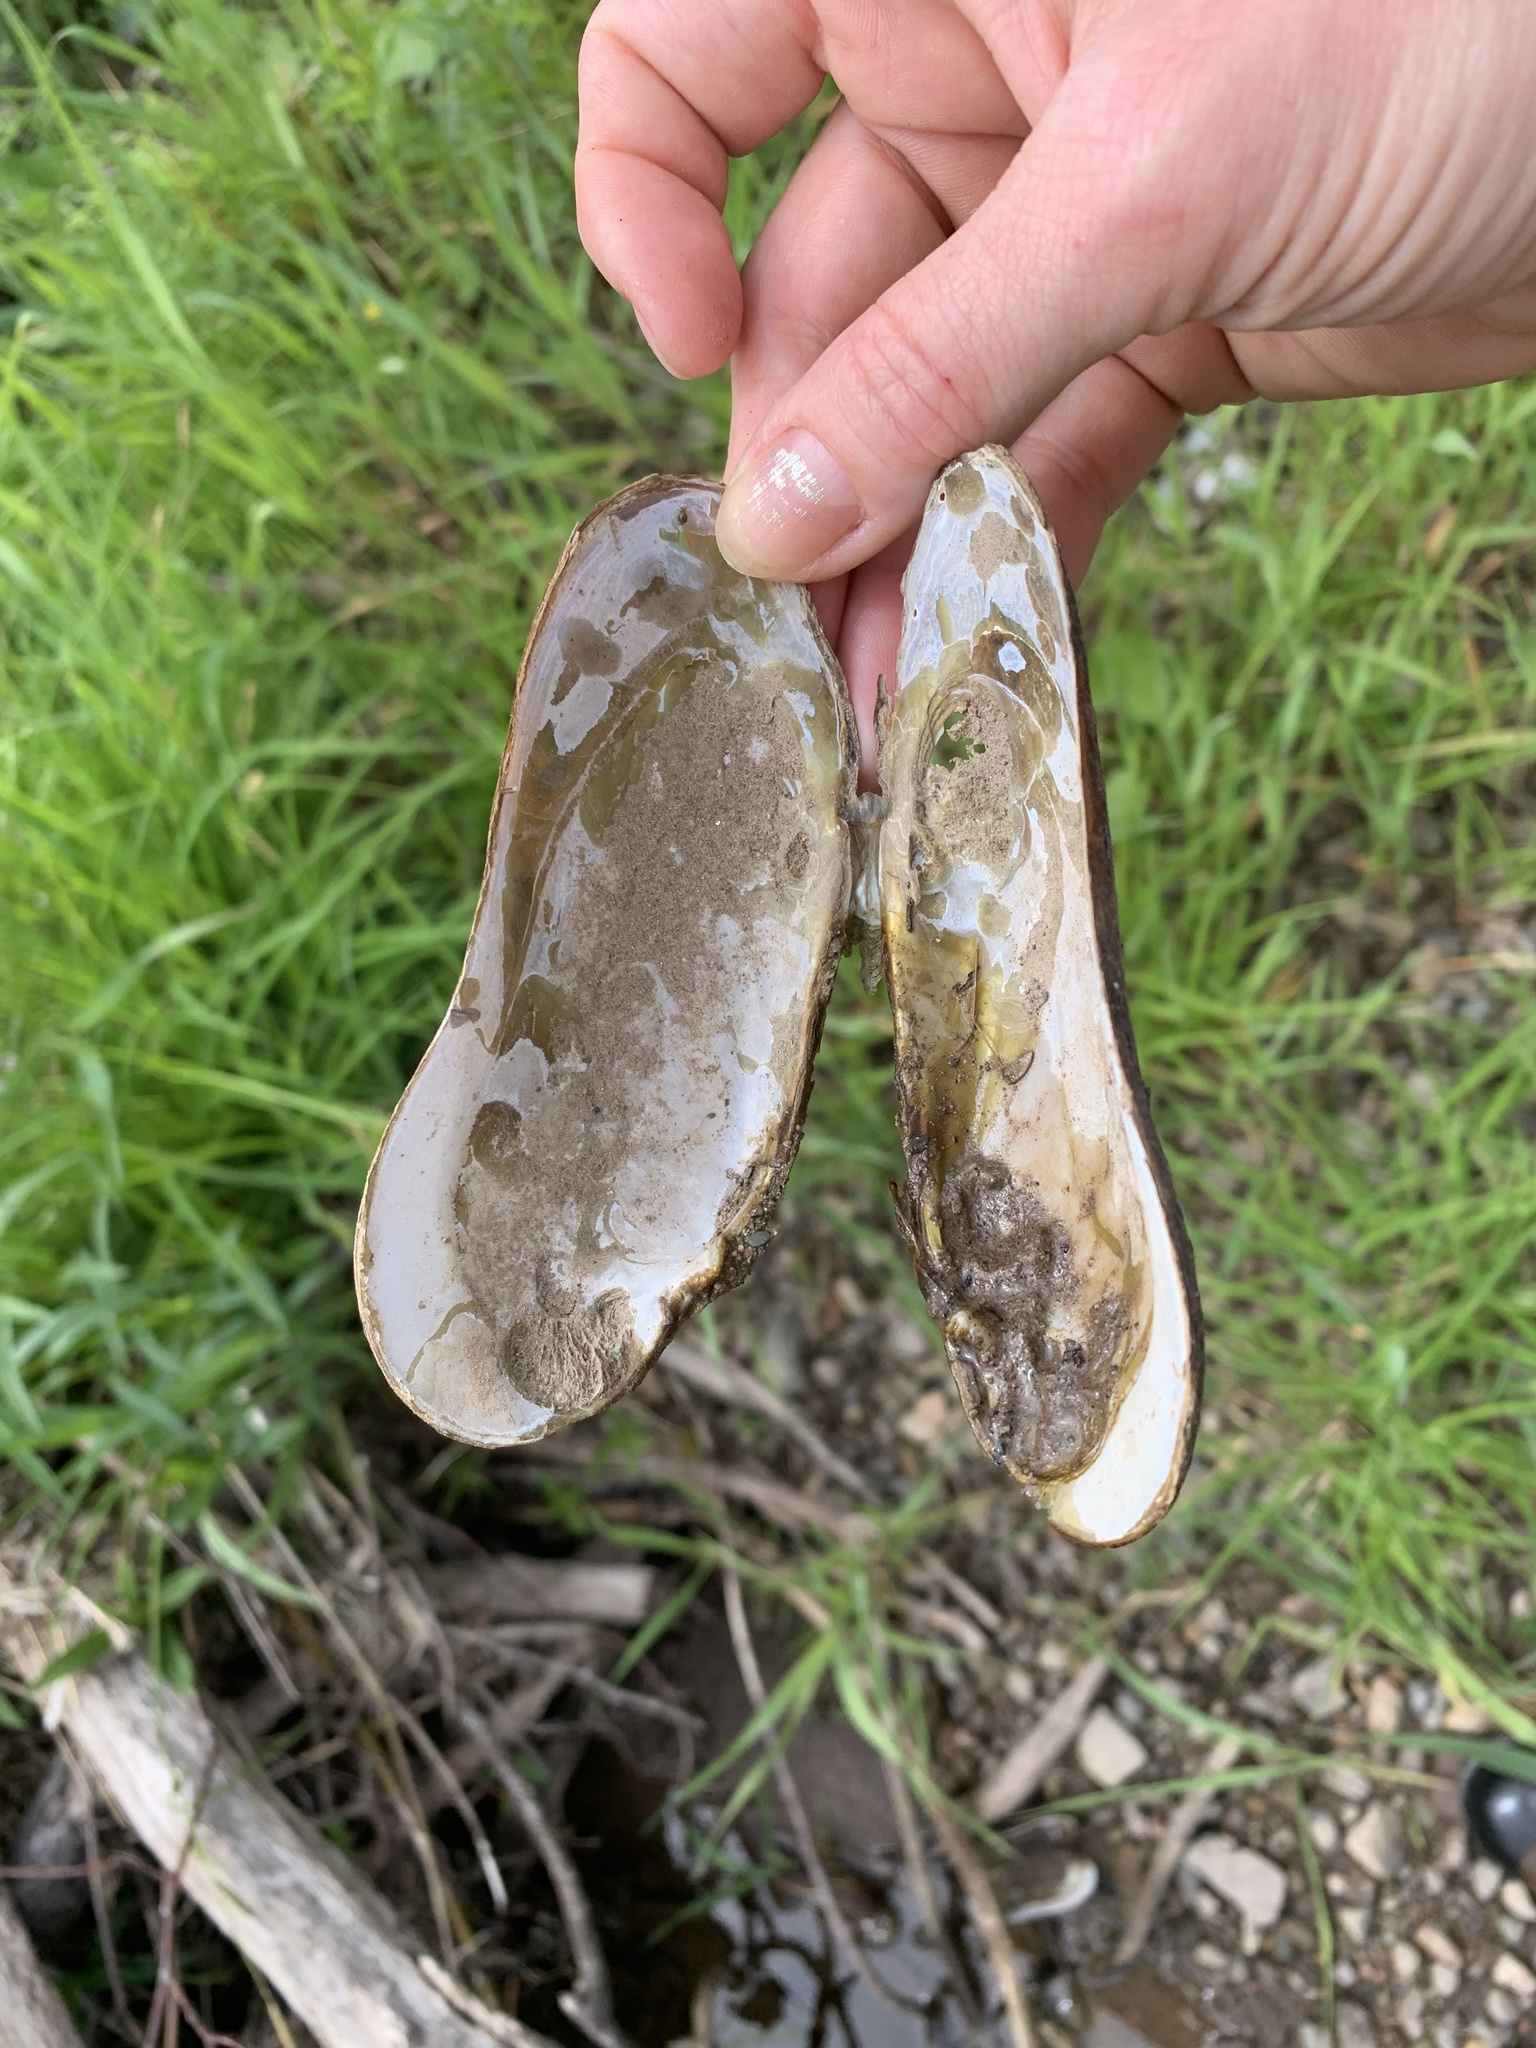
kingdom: Animalia
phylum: Mollusca
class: Bivalvia
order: Unionida
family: Margaritiferidae
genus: Margaritifera
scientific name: Margaritifera margaritifera
